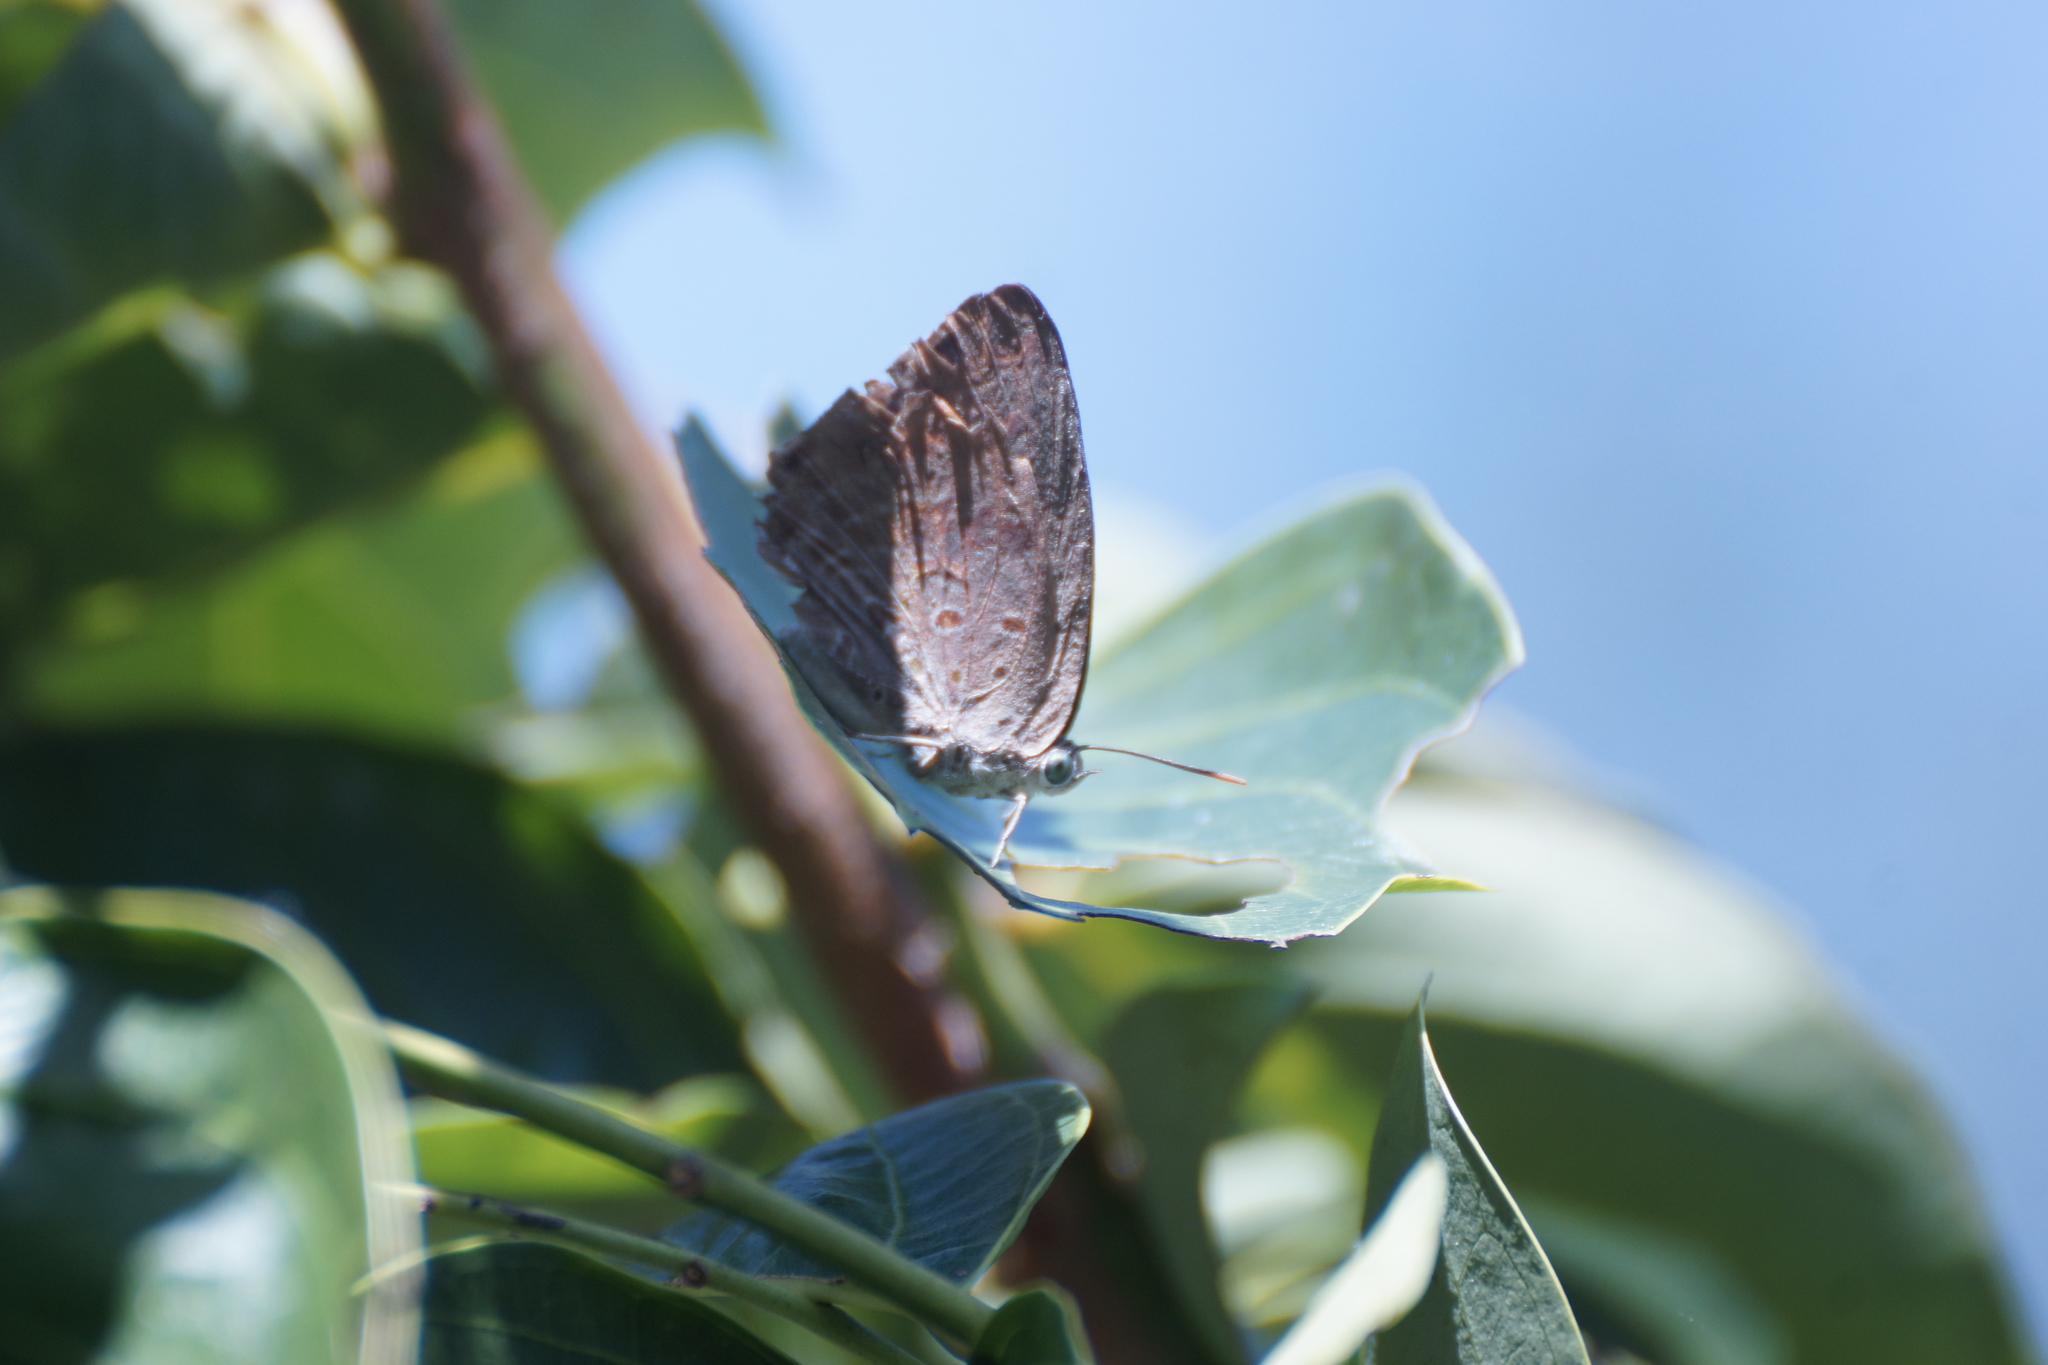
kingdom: Animalia
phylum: Arthropoda
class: Insecta
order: Lepidoptera
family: Lycaenidae
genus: Arhopala
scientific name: Arhopala
